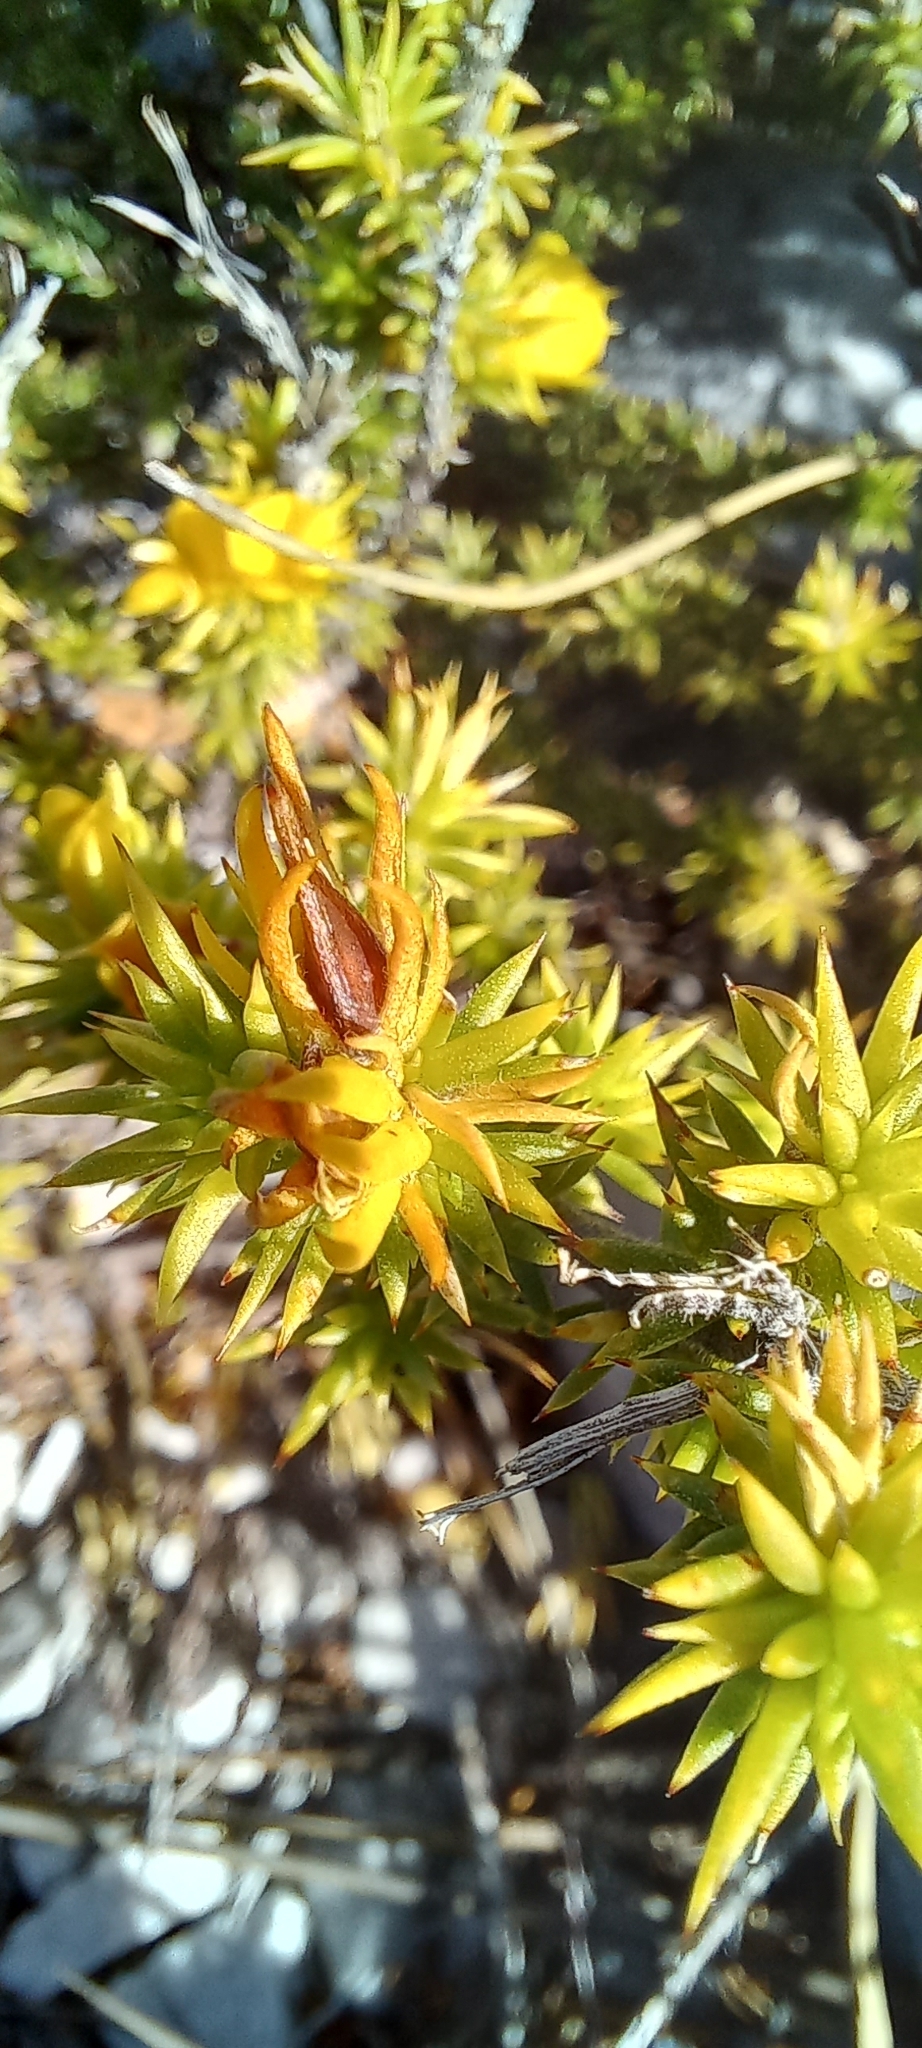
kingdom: Plantae
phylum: Tracheophyta
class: Magnoliopsida
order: Fabales
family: Fabaceae
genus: Aspalathus
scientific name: Aspalathus batodes
